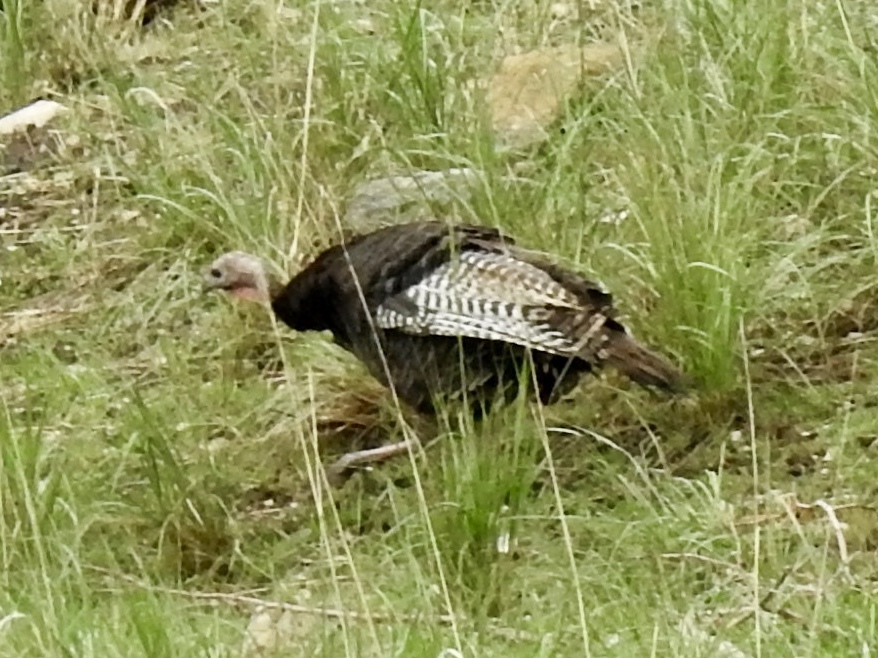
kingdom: Animalia
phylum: Chordata
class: Aves
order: Galliformes
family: Phasianidae
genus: Meleagris
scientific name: Meleagris gallopavo
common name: Wild turkey
